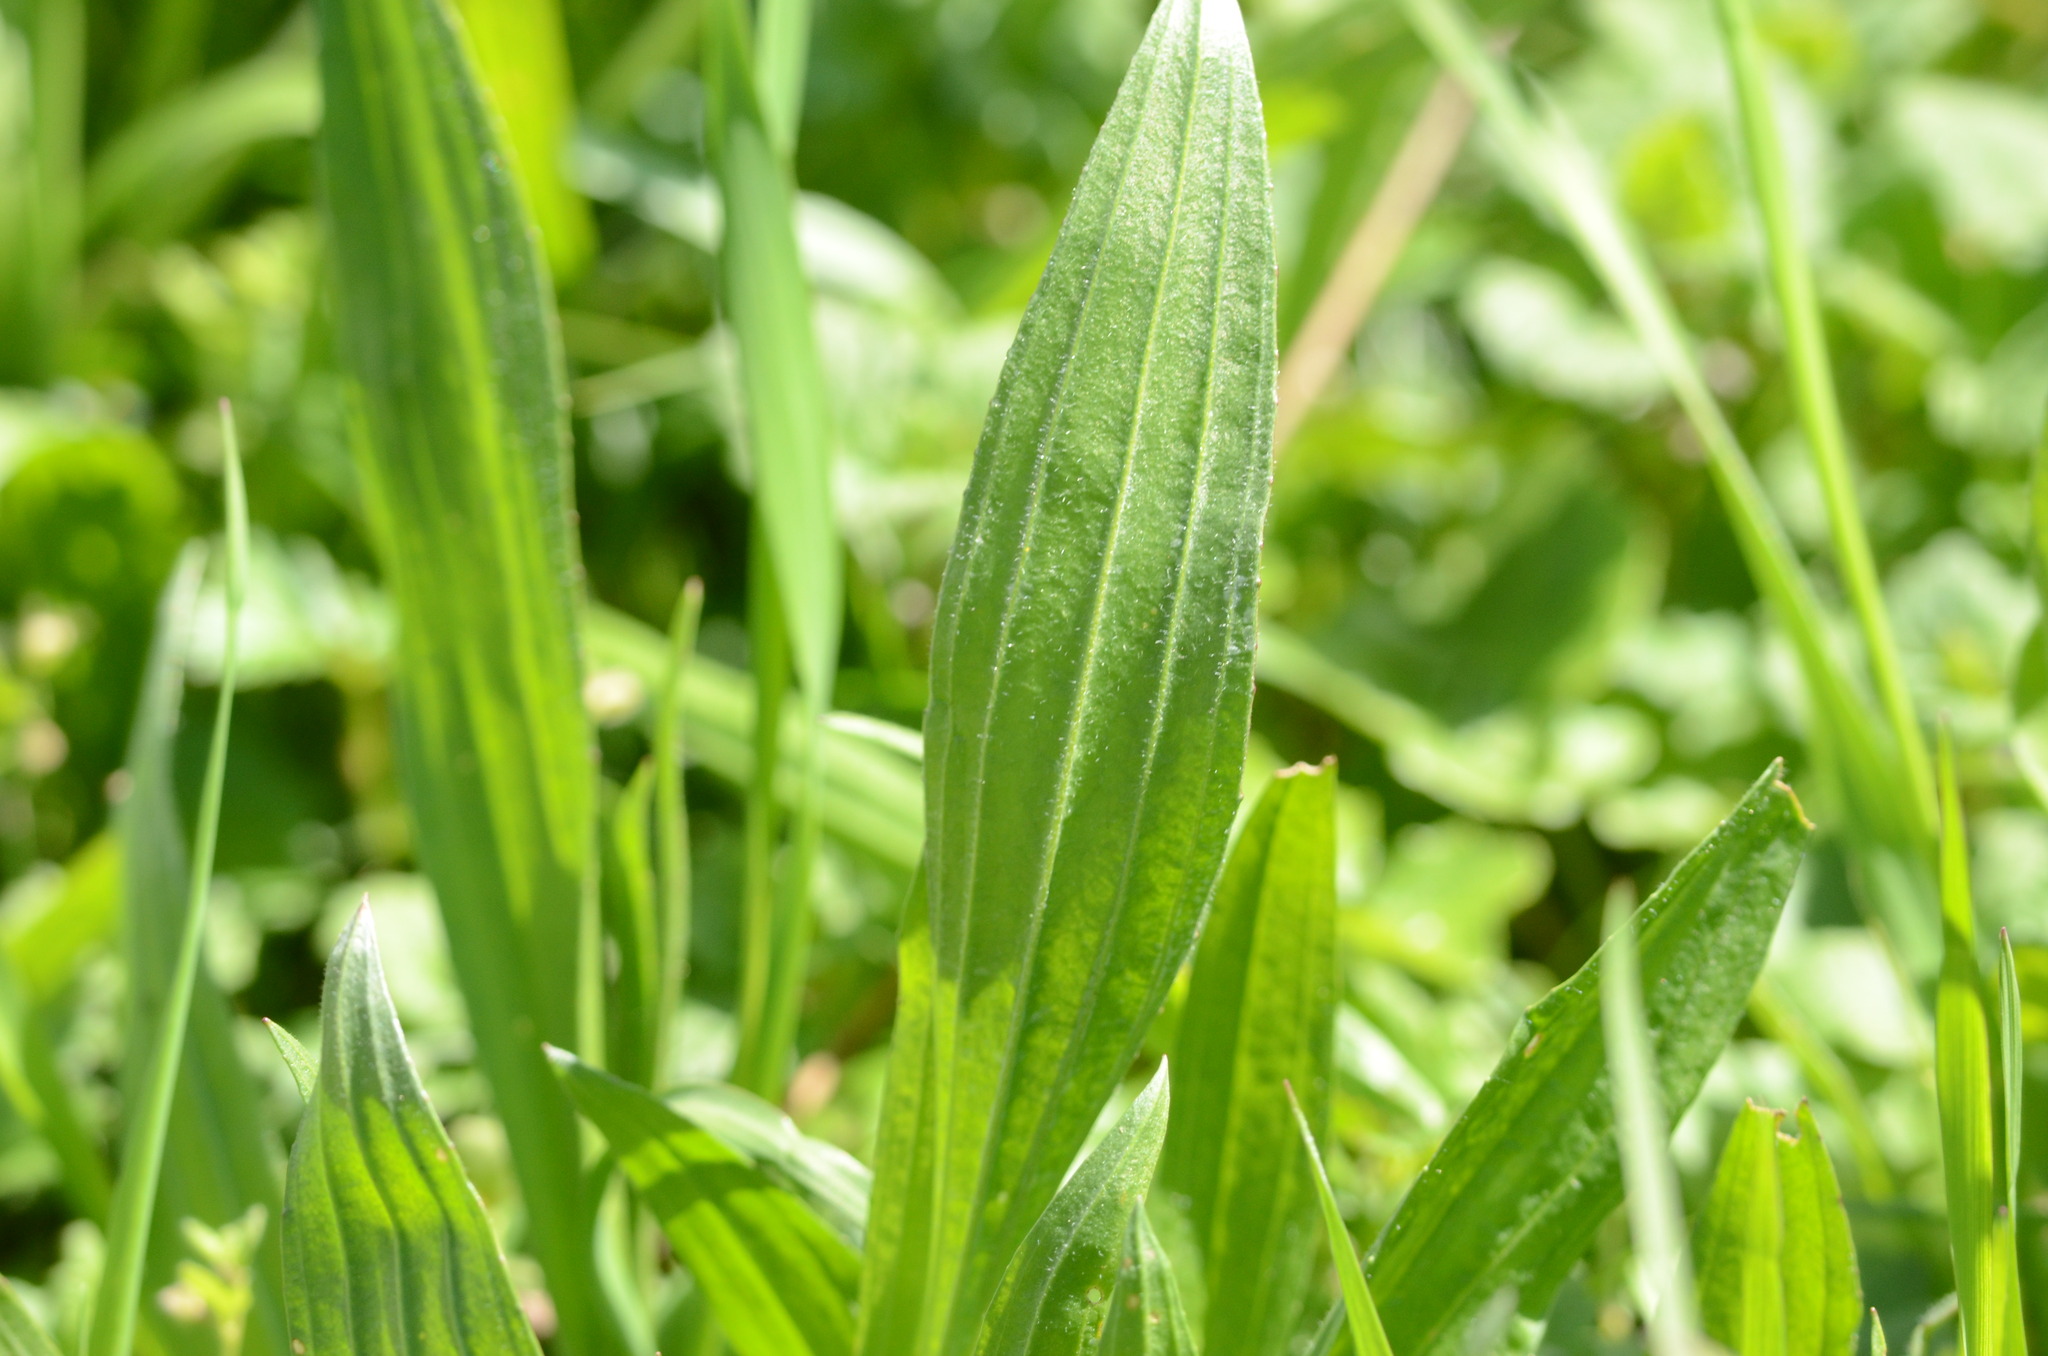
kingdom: Plantae
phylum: Tracheophyta
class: Magnoliopsida
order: Lamiales
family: Plantaginaceae
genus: Plantago
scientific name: Plantago lanceolata
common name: Ribwort plantain
